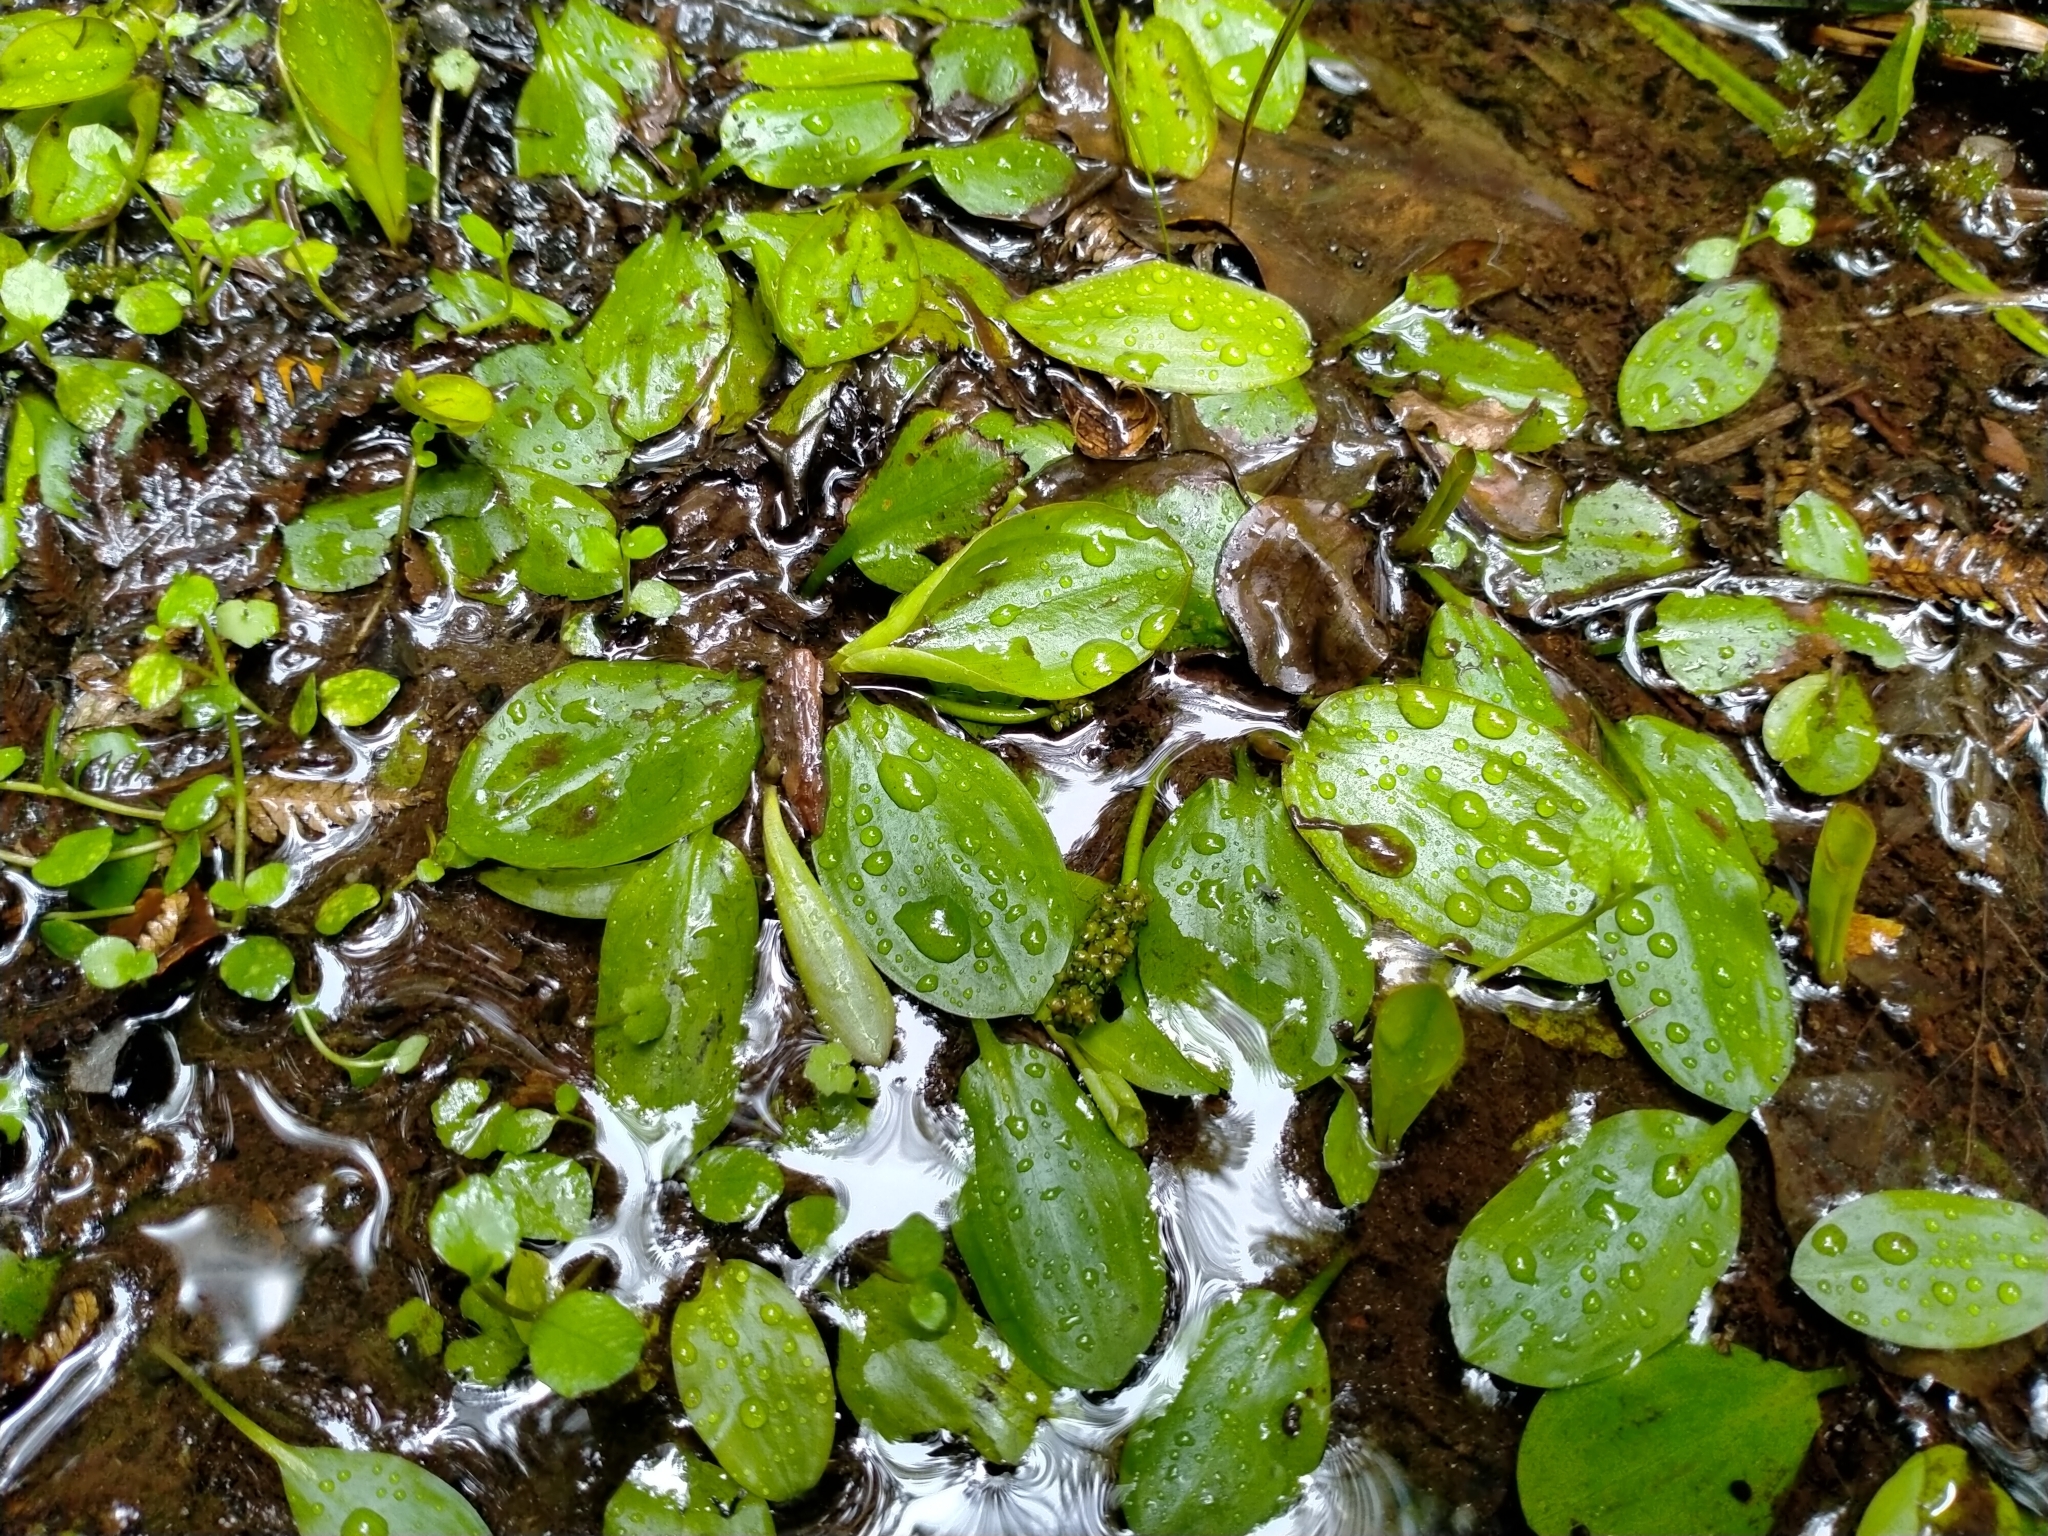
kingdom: Plantae
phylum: Tracheophyta
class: Liliopsida
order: Alismatales
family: Potamogetonaceae
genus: Potamogeton
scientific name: Potamogeton cheesemanii
